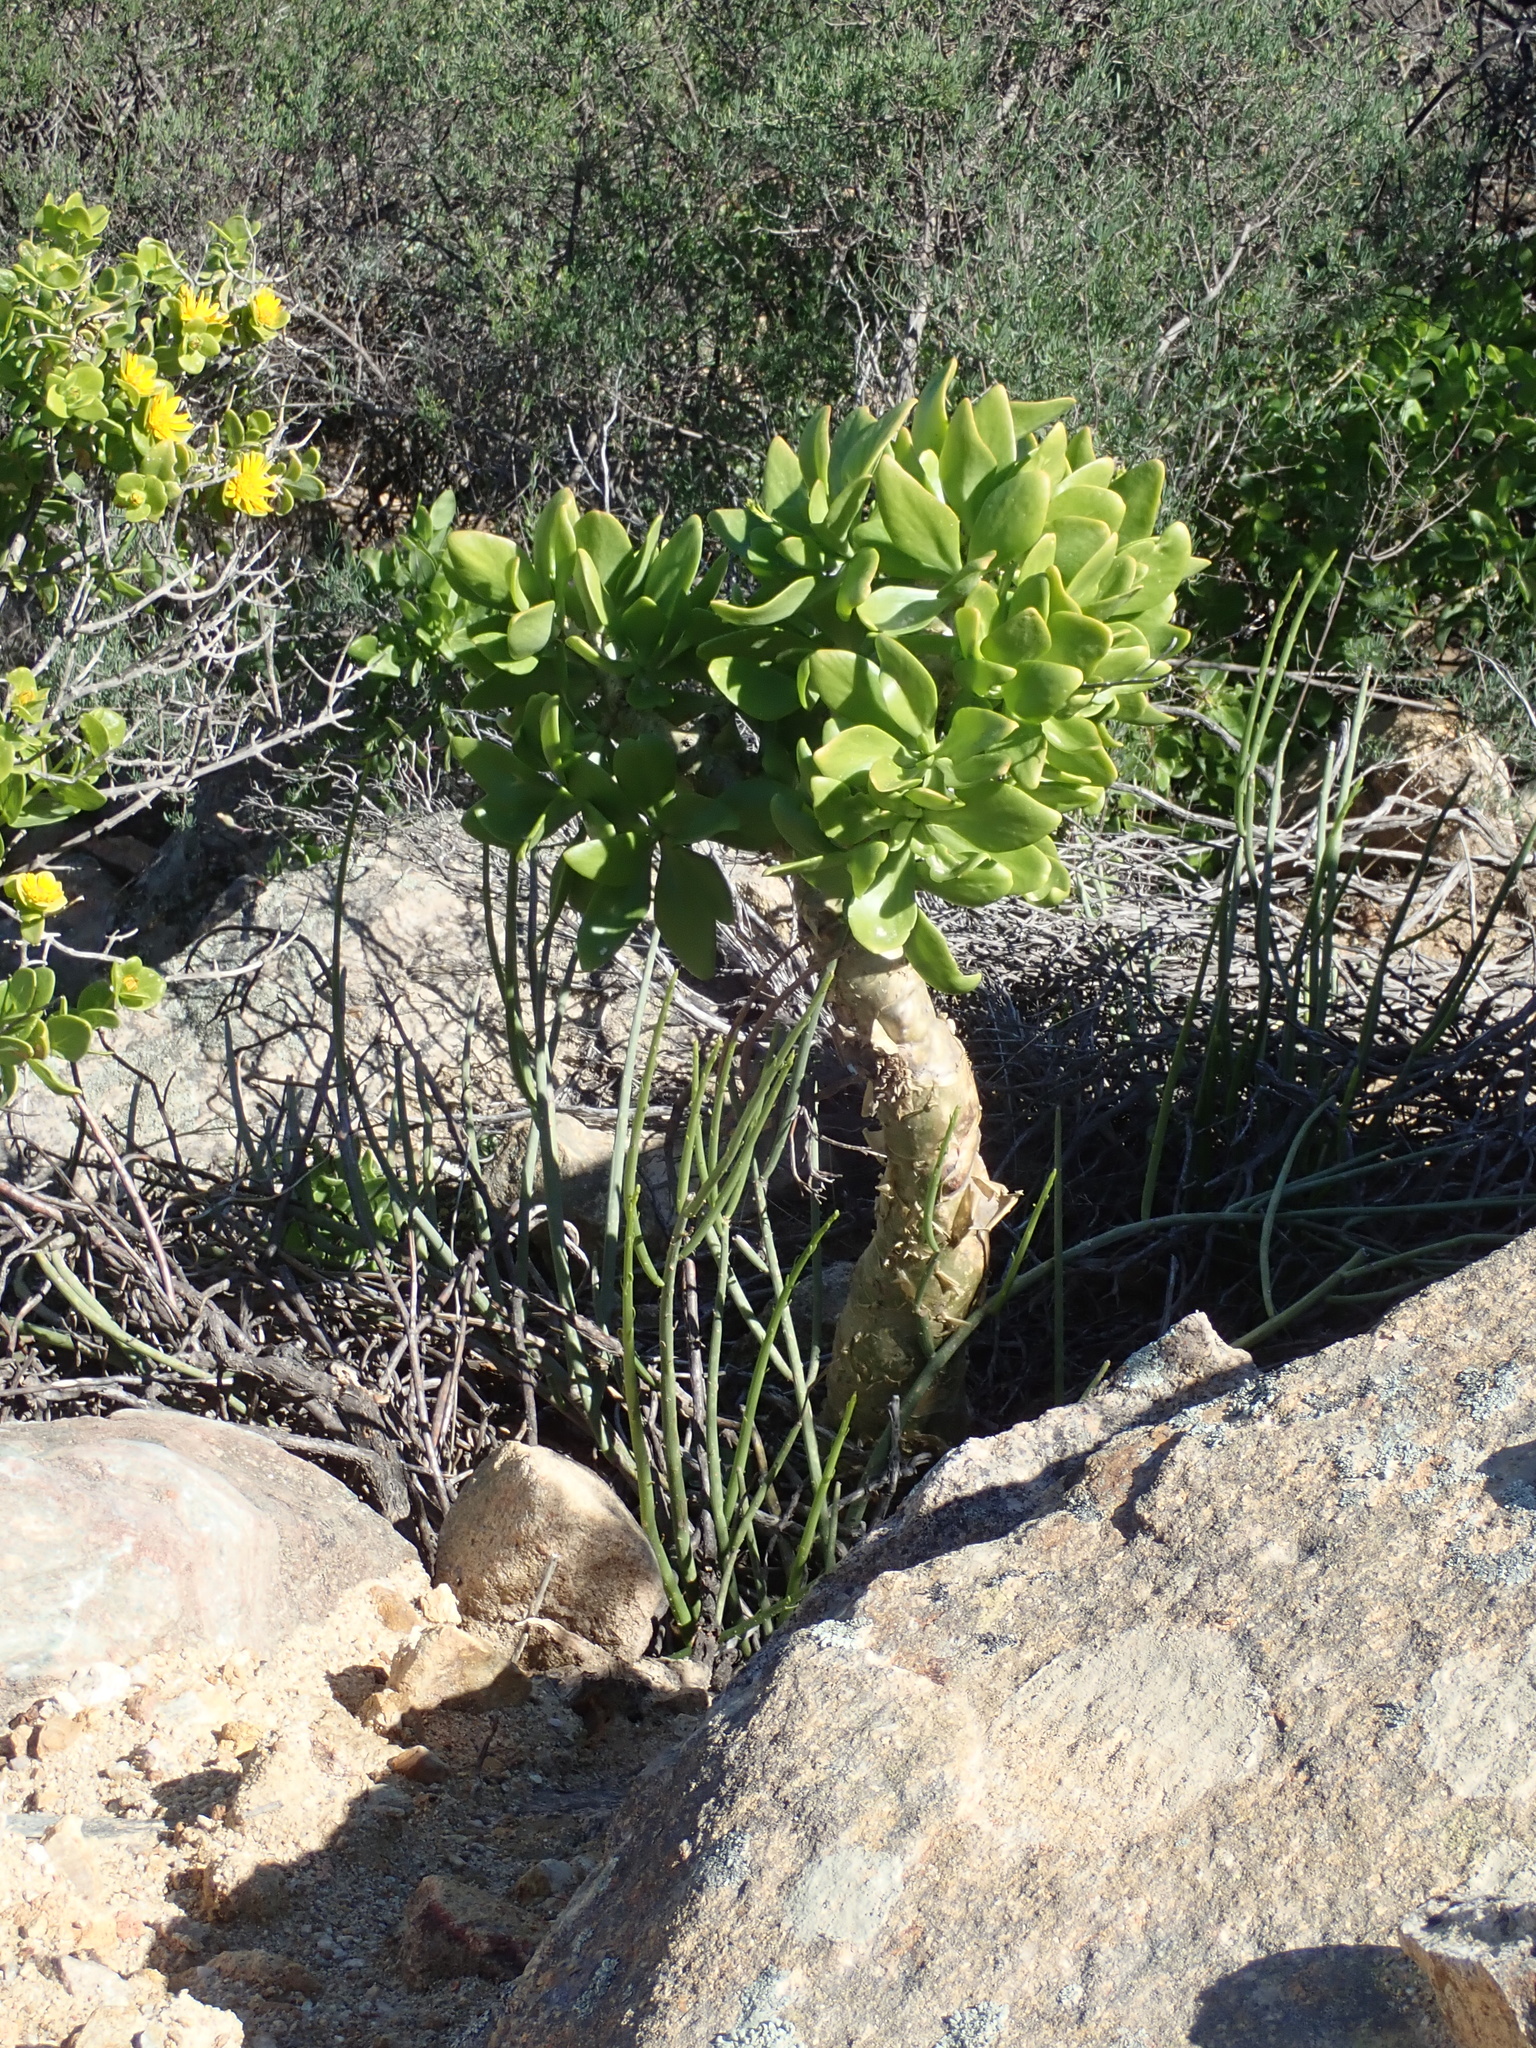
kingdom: Plantae
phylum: Tracheophyta
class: Magnoliopsida
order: Saxifragales
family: Crassulaceae
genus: Tylecodon
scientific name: Tylecodon paniculatus
